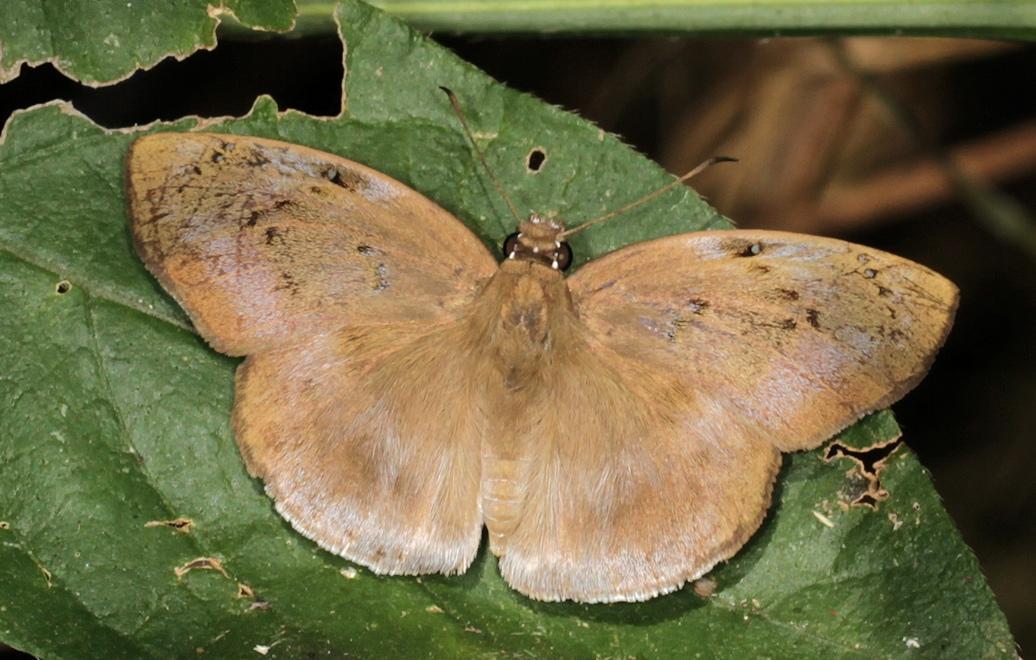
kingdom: Animalia
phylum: Arthropoda
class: Insecta
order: Lepidoptera
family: Hesperiidae
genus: Tagiades
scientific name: Tagiades flesus
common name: Clouded flat
